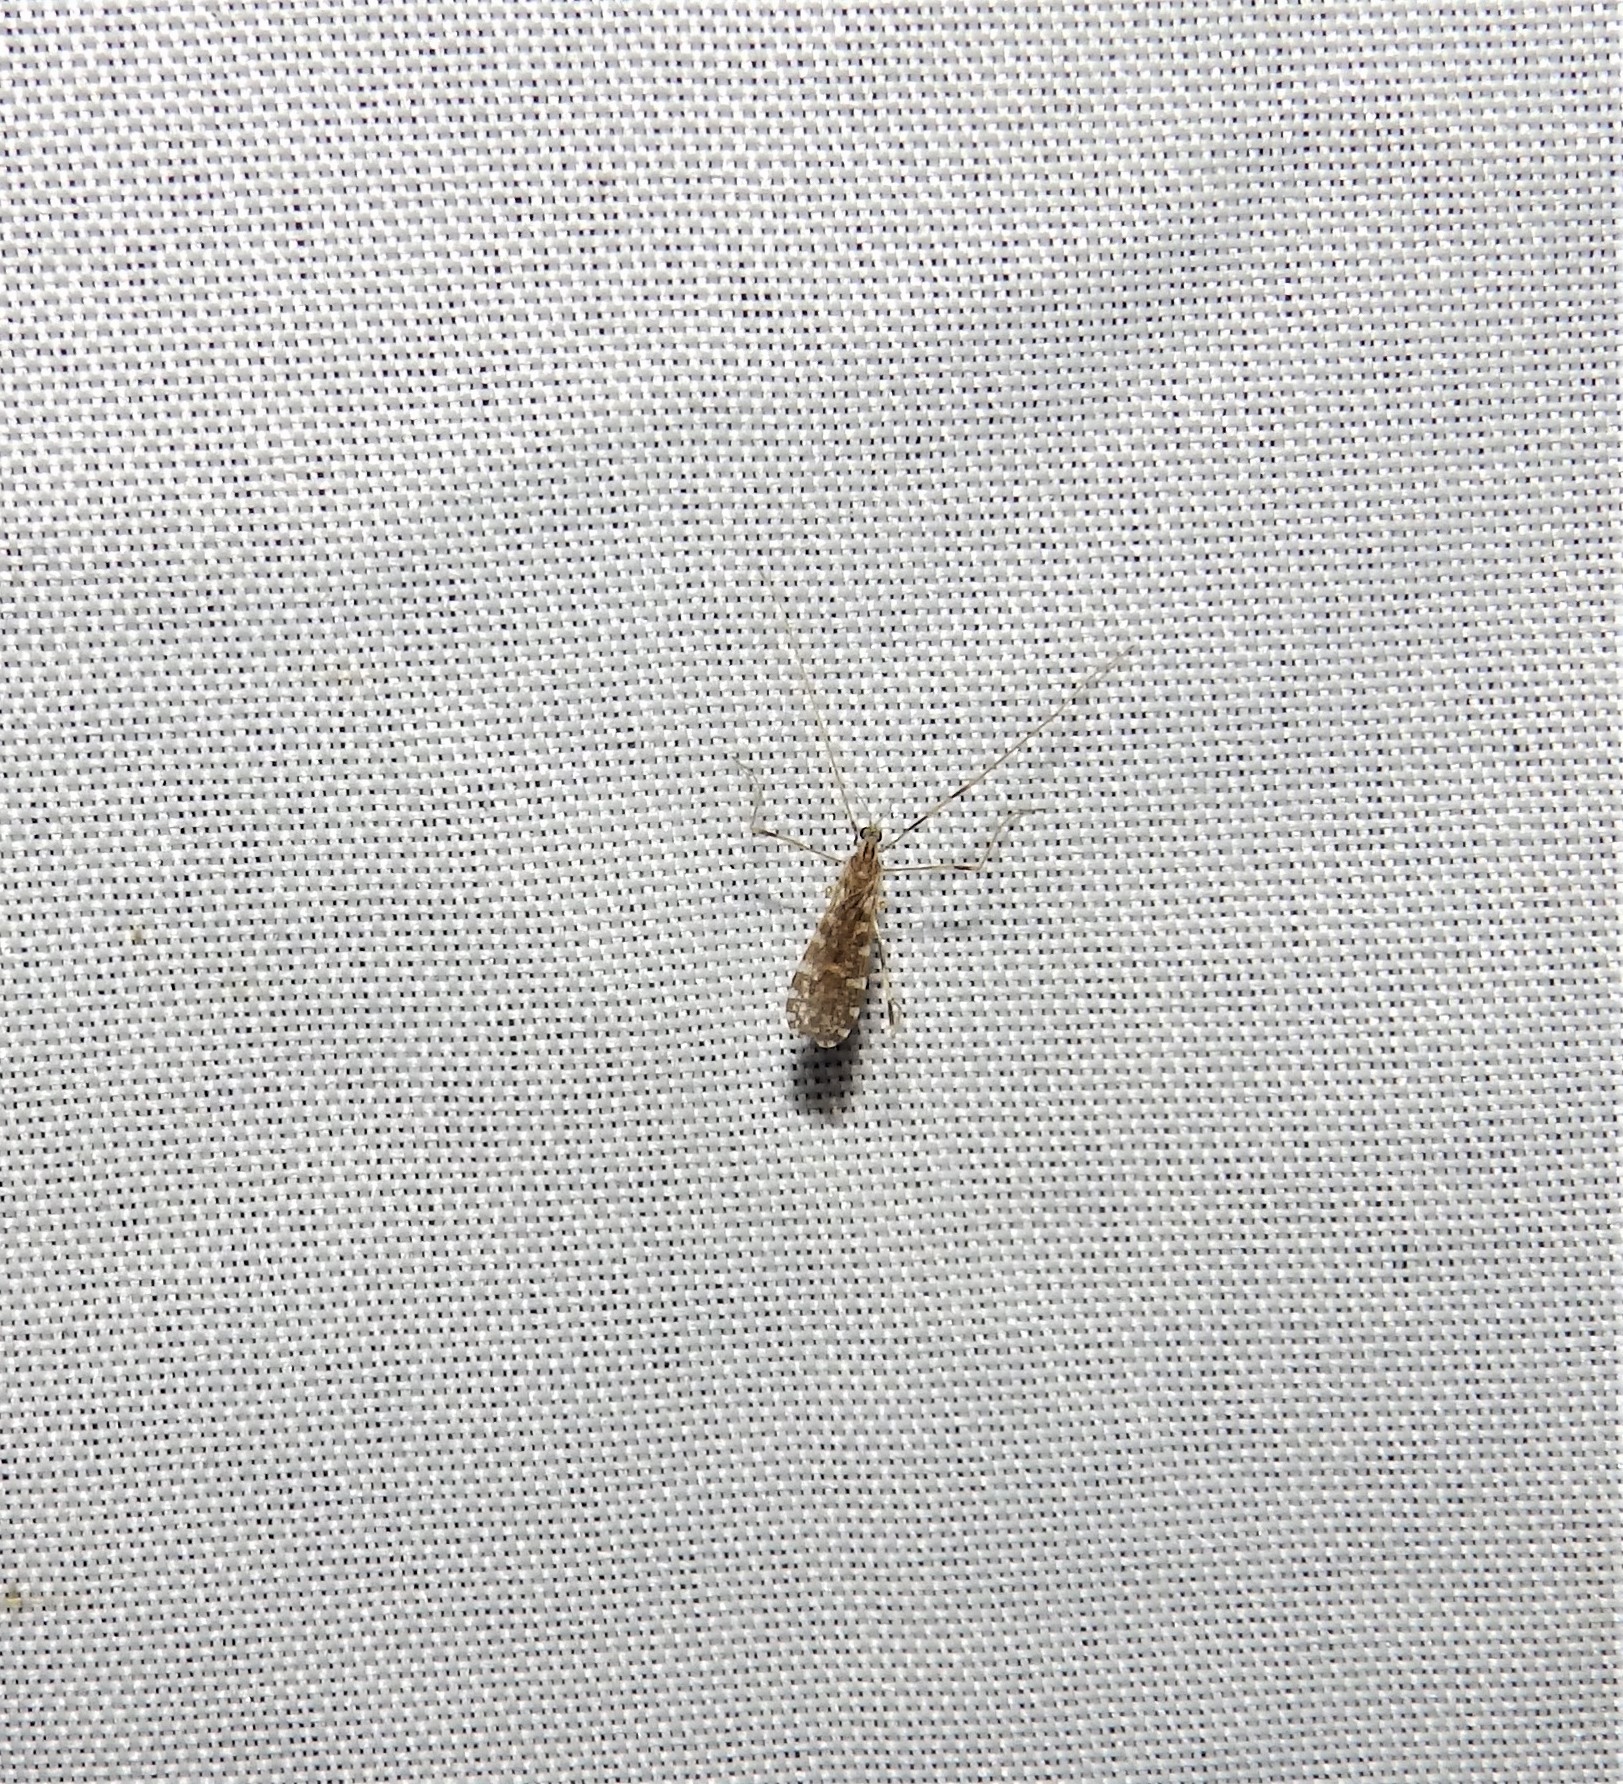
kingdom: Animalia
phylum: Arthropoda
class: Insecta
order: Diptera
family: Limoniidae
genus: Erioptera
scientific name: Erioptera caliptera
